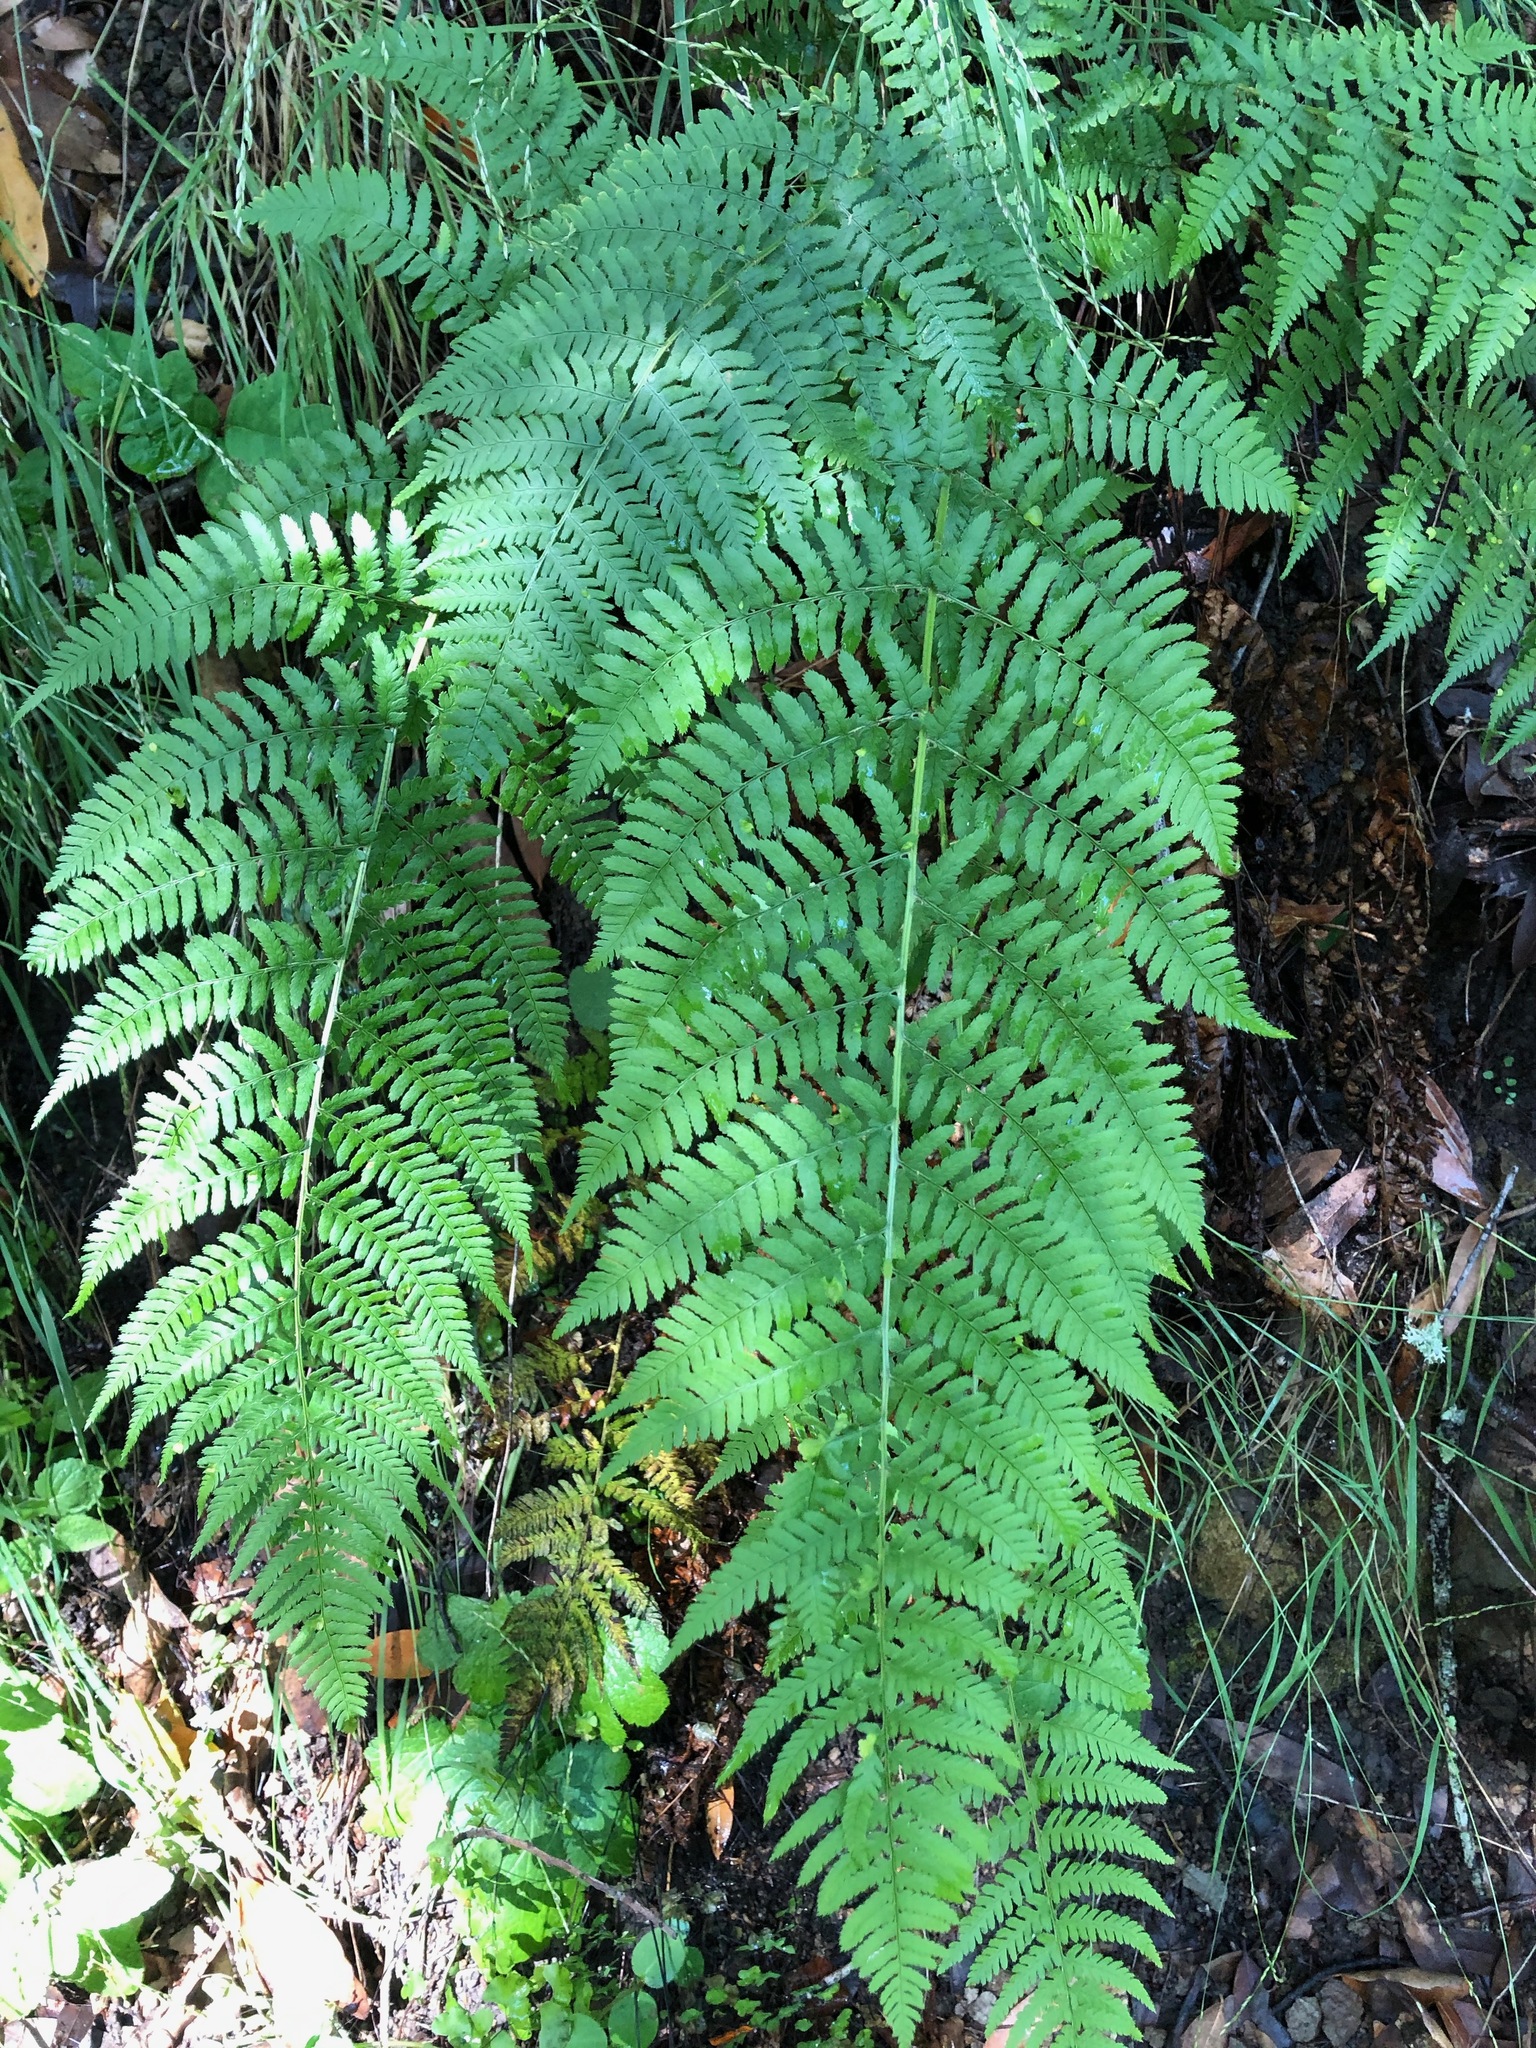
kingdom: Plantae
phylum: Tracheophyta
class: Polypodiopsida
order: Polypodiales
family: Dryopteridaceae
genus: Dryopteris
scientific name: Dryopteris arguta
